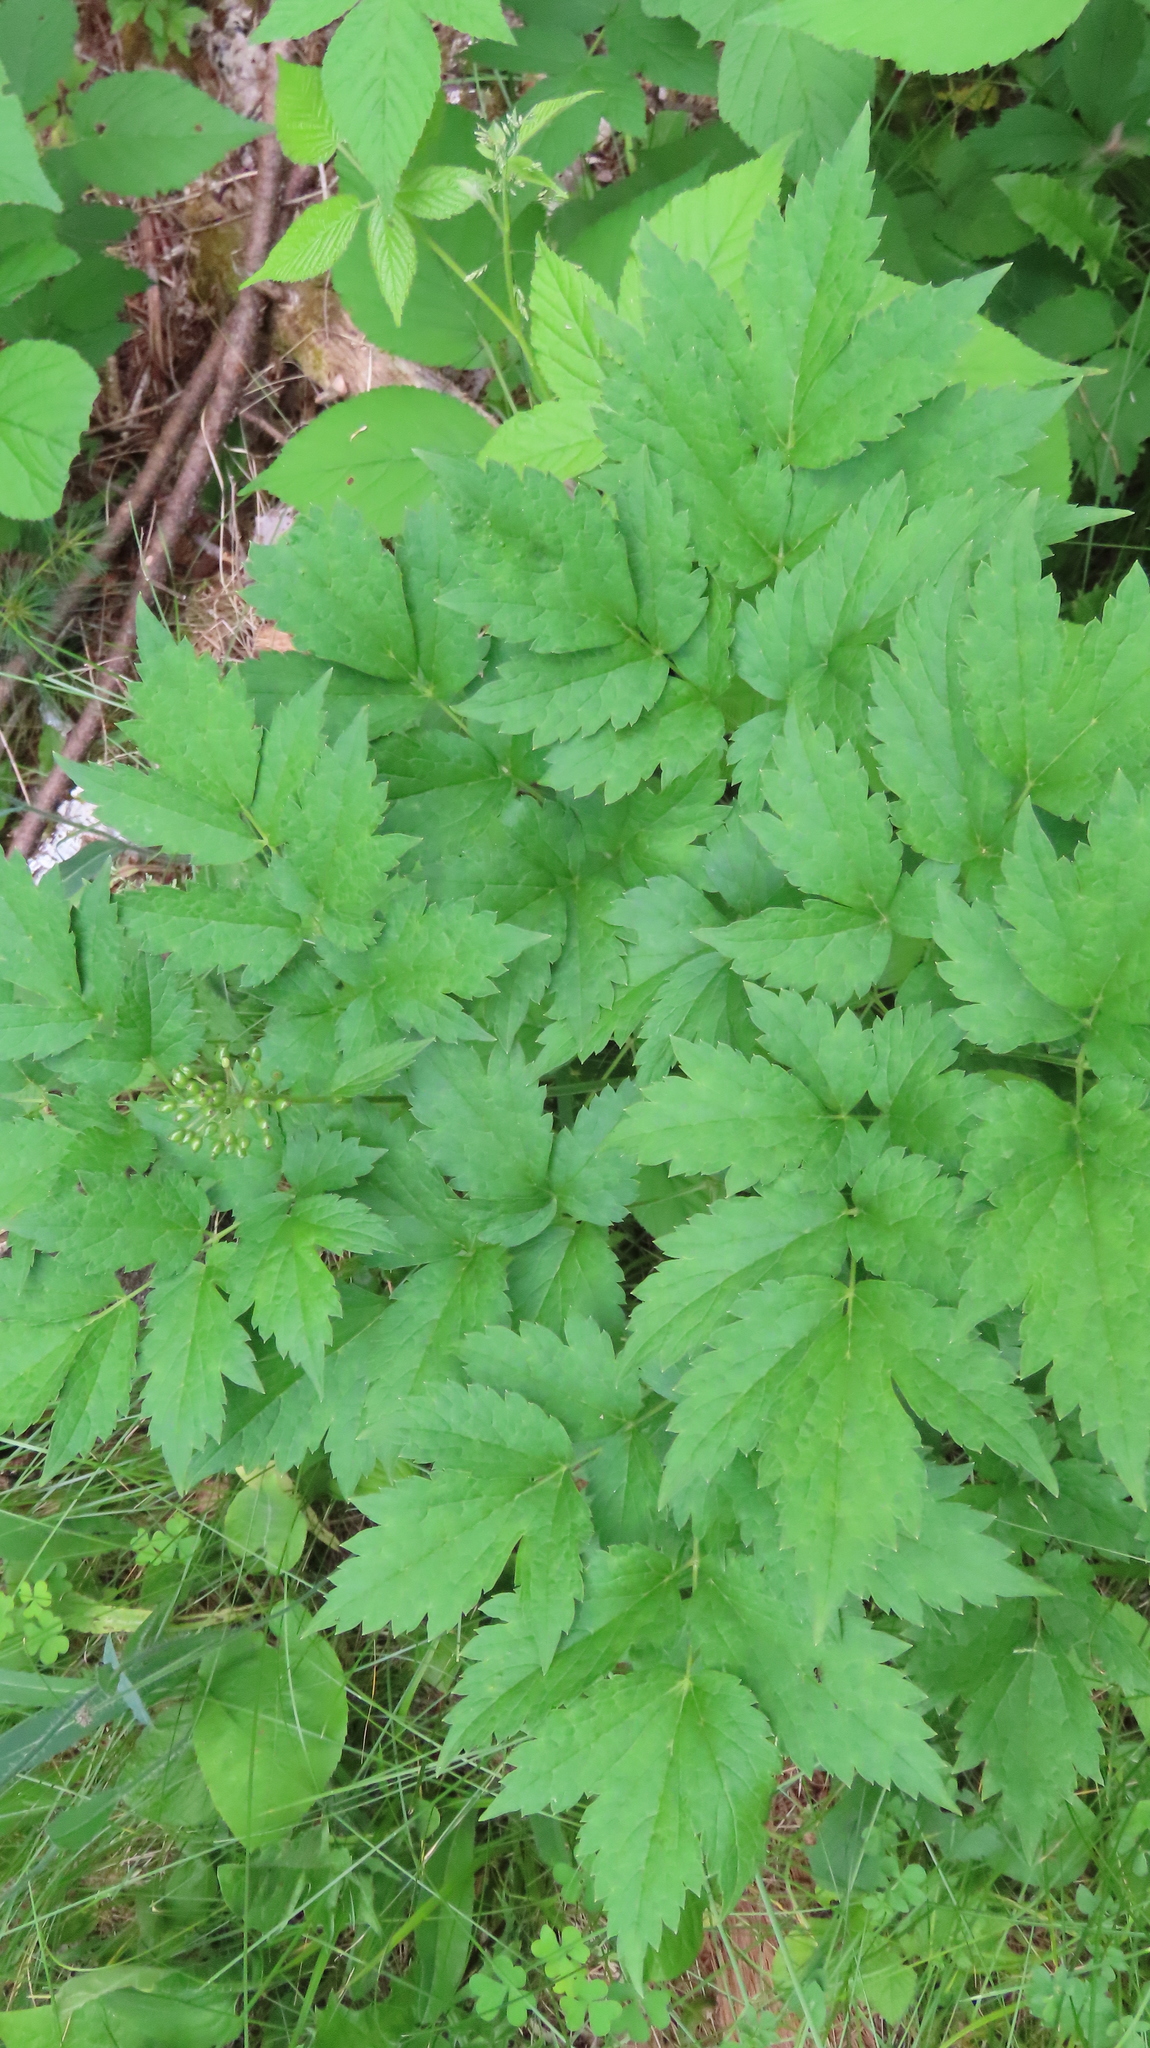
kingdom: Plantae
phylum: Tracheophyta
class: Magnoliopsida
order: Ranunculales
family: Ranunculaceae
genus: Actaea
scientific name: Actaea rubra
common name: Red baneberry
